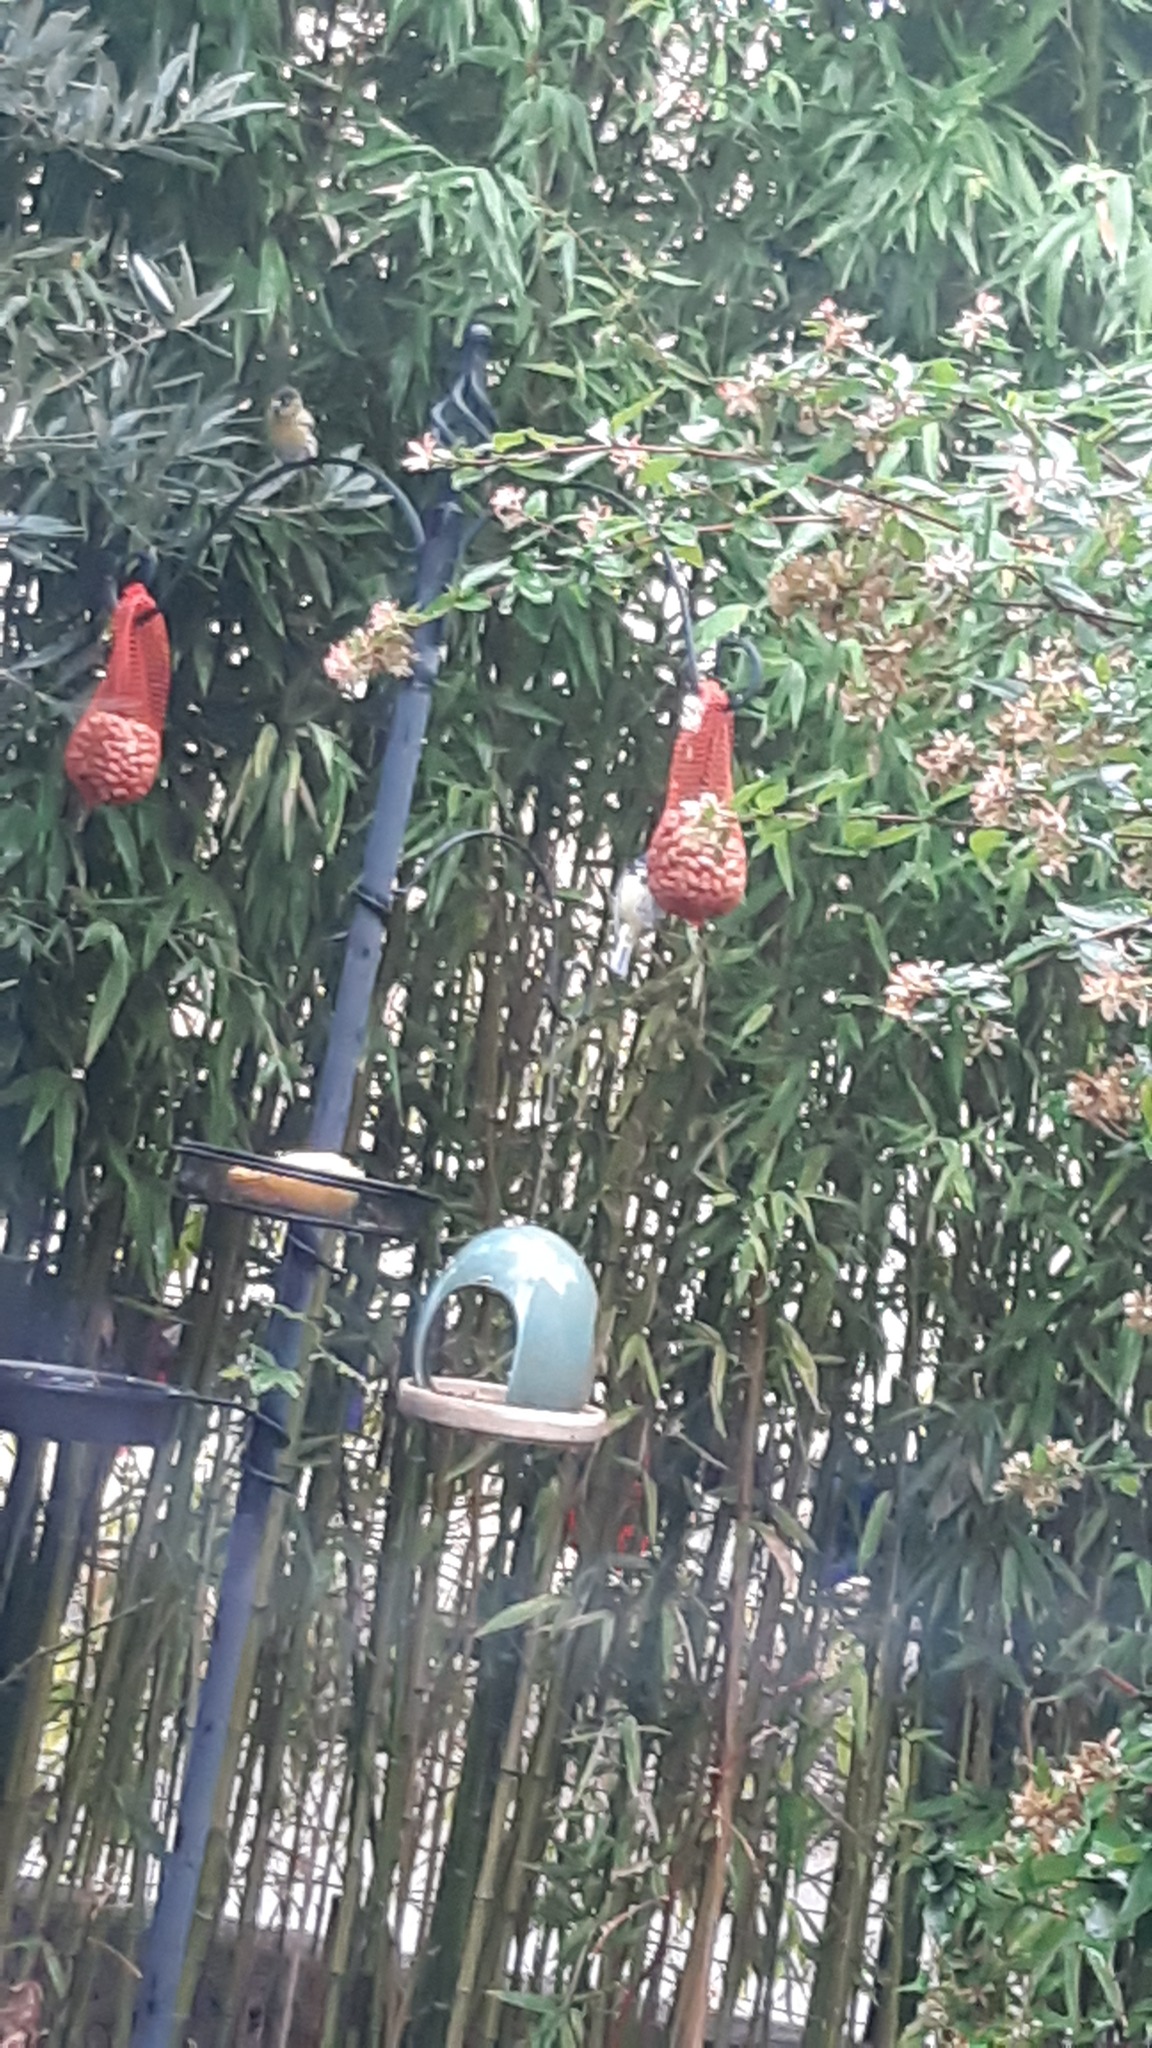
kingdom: Animalia
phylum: Chordata
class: Aves
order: Passeriformes
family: Paridae
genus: Cyanistes
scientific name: Cyanistes caeruleus
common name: Eurasian blue tit
